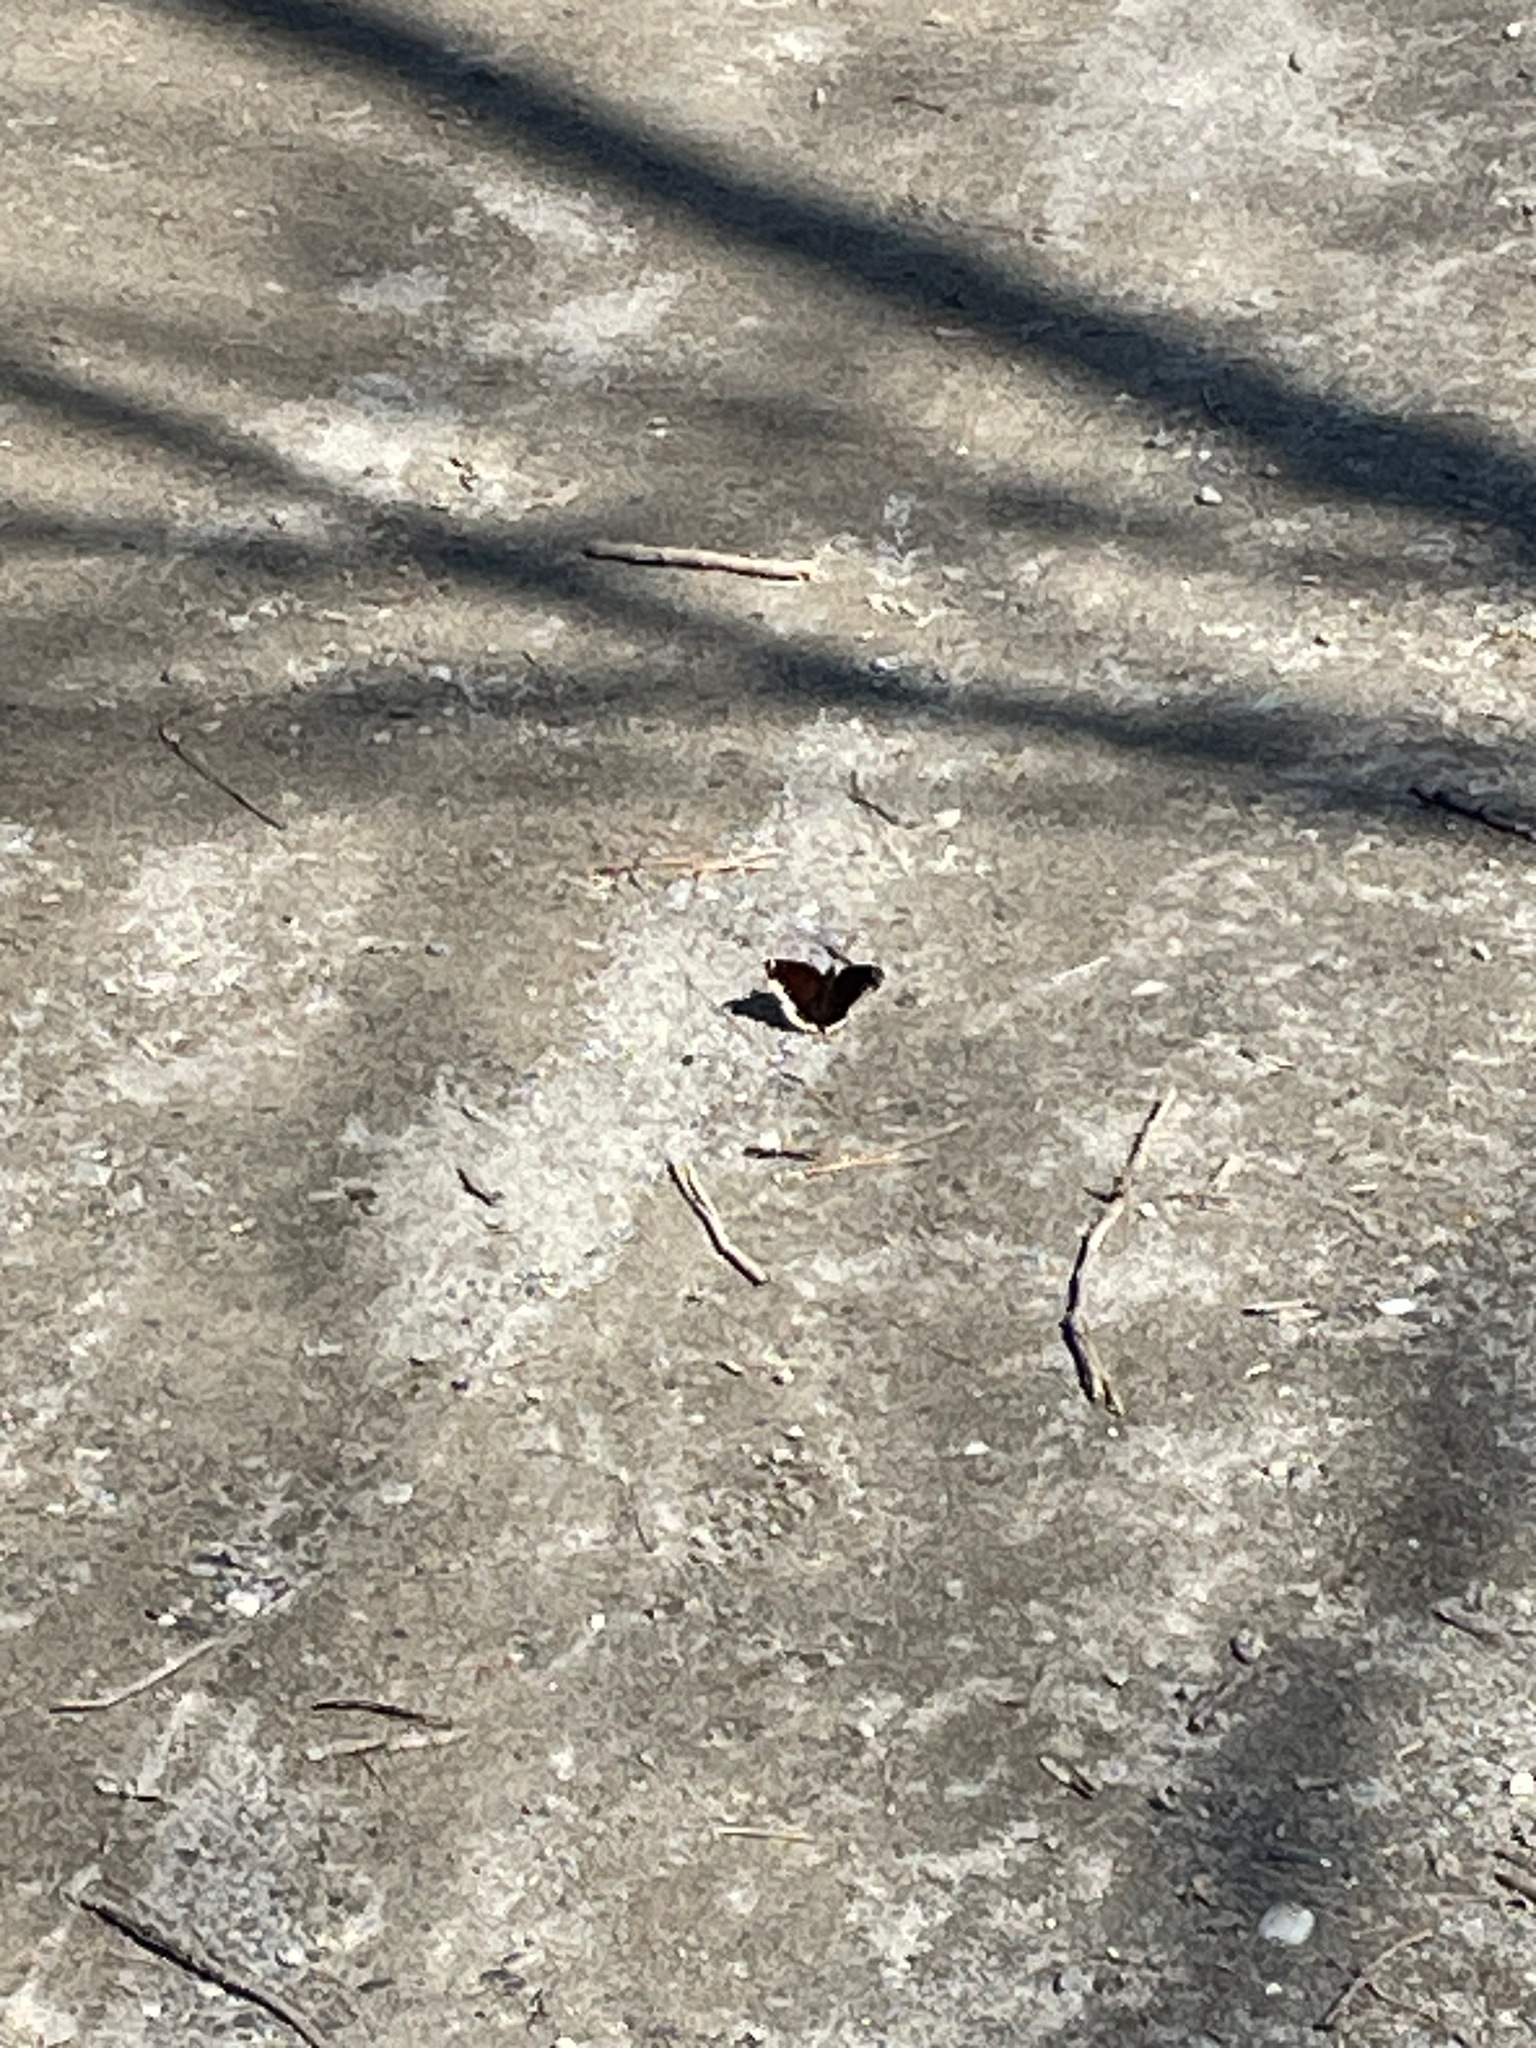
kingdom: Animalia
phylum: Arthropoda
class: Insecta
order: Lepidoptera
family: Nymphalidae
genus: Nymphalis
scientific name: Nymphalis antiopa
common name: Camberwell beauty
